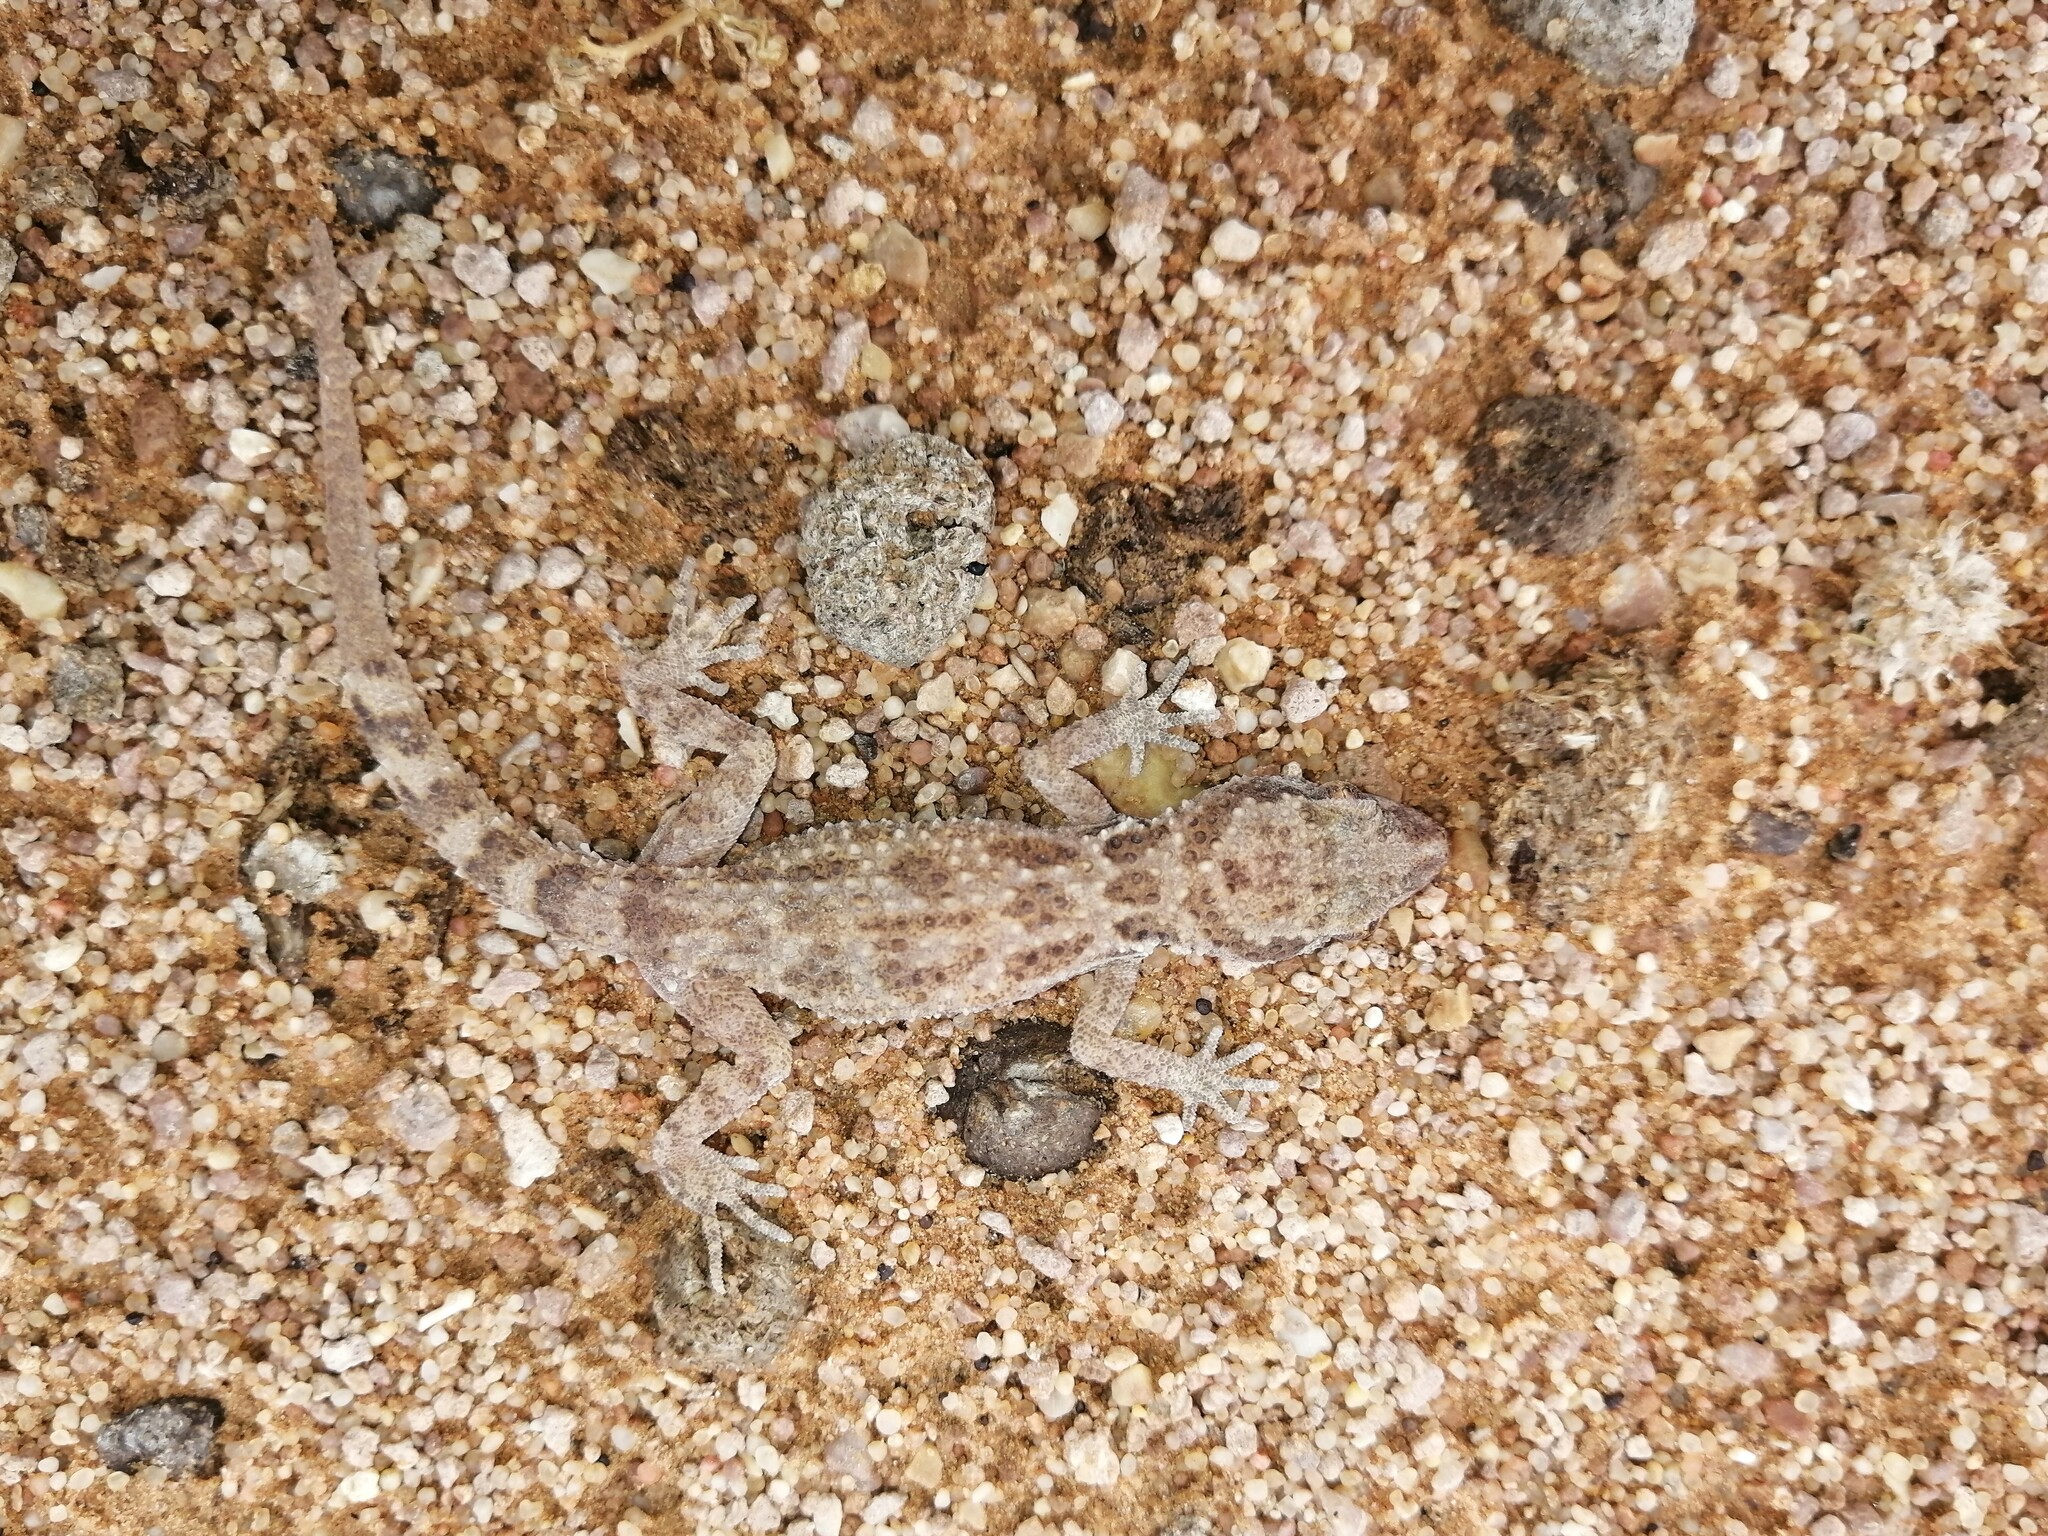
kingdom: Animalia
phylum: Chordata
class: Squamata
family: Gekkonidae
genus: Bunopus
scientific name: Bunopus tuberculatus
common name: Southern tuberculated gecko
